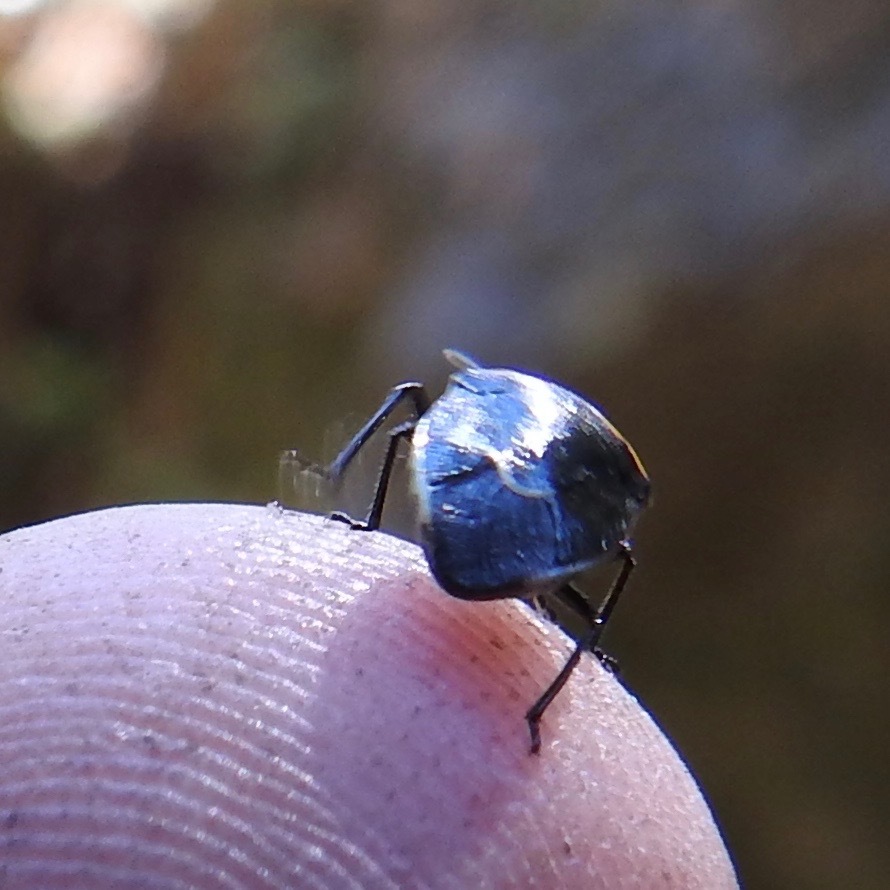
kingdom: Animalia
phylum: Arthropoda
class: Insecta
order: Hemiptera
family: Pentatomidae
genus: Cosmopepla
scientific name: Cosmopepla conspicillaris
